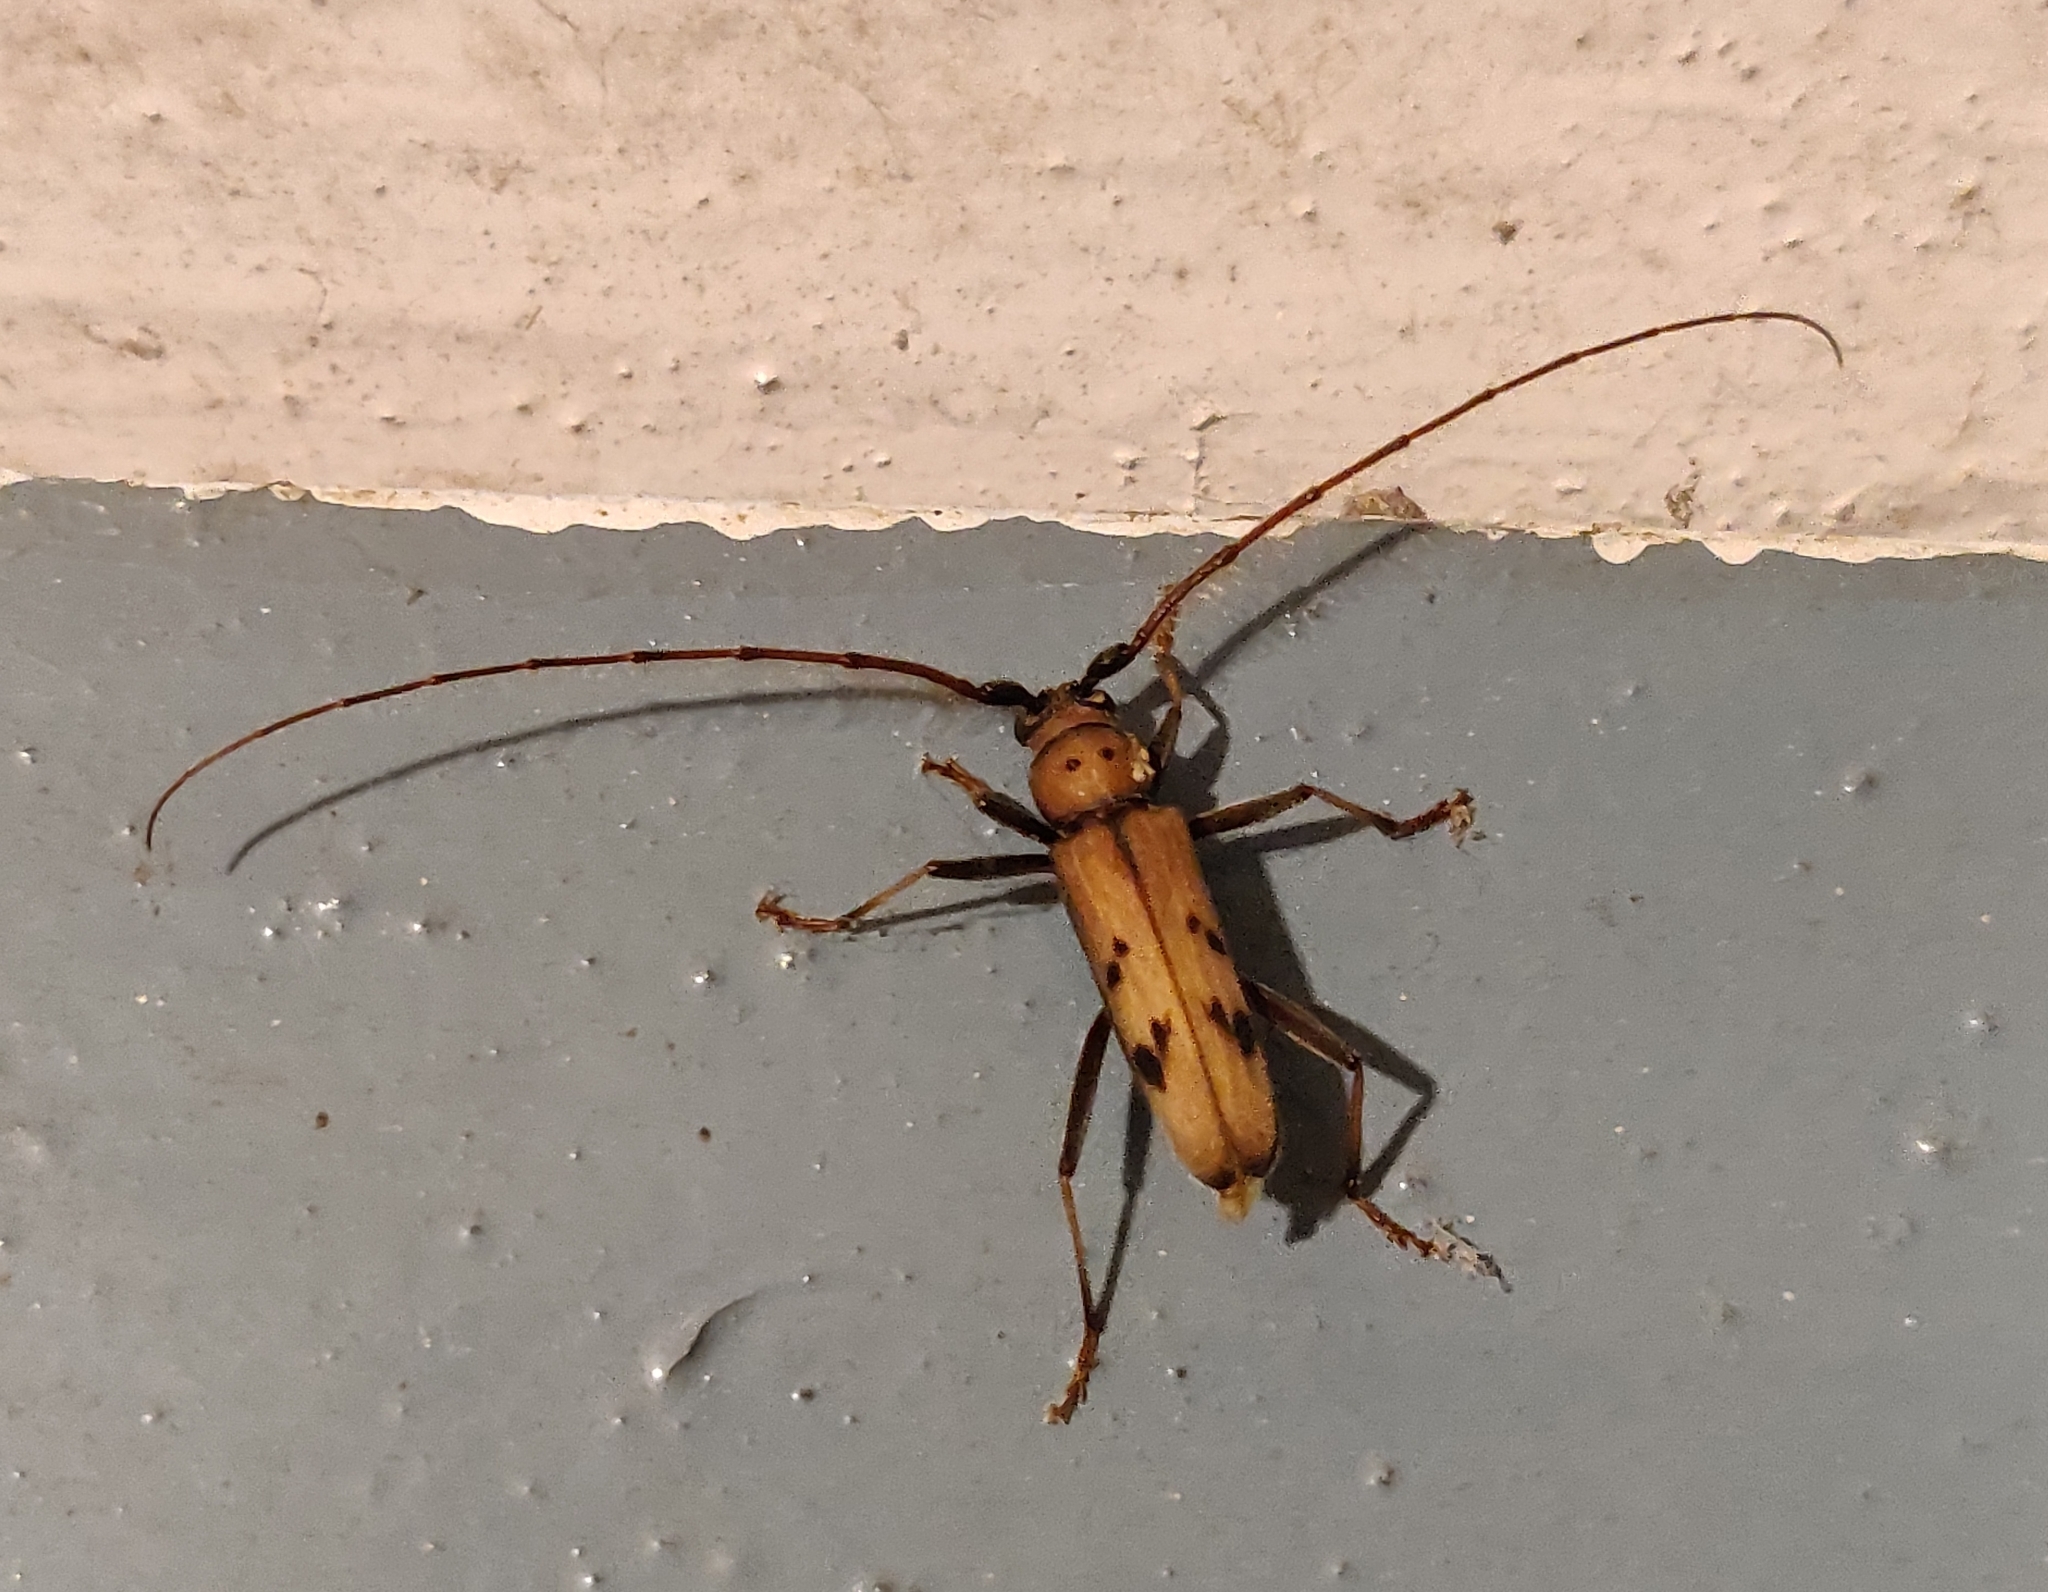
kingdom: Animalia
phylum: Arthropoda
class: Insecta
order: Coleoptera
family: Cerambycidae
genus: Zoodes
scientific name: Zoodes quadridentatus
